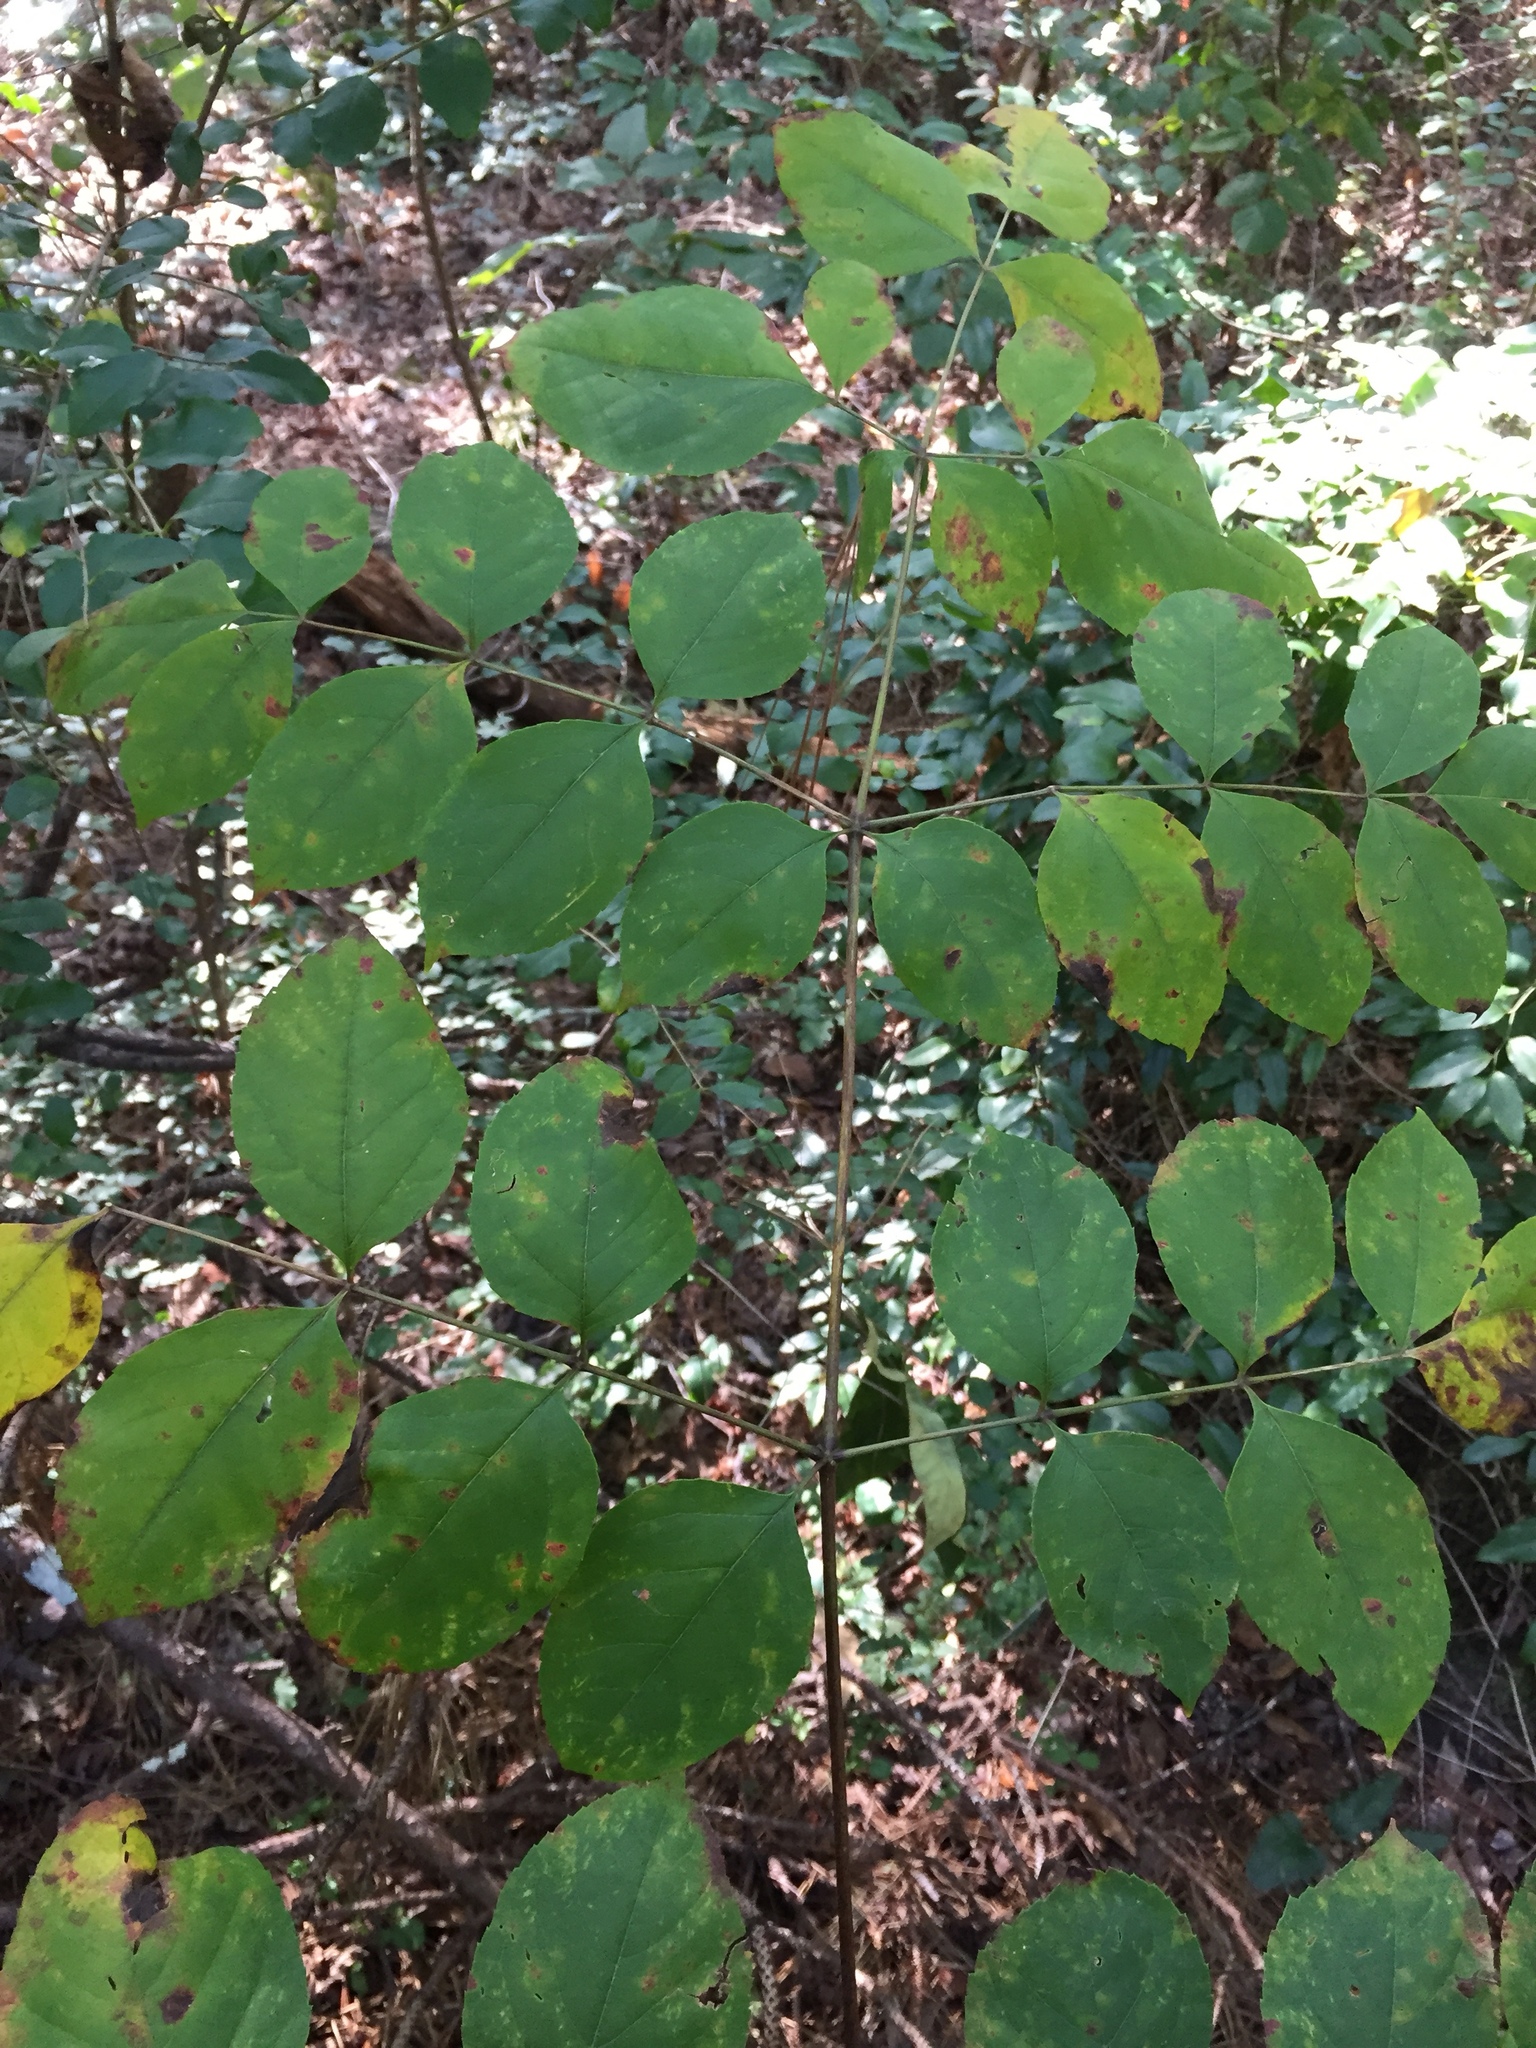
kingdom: Plantae
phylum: Tracheophyta
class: Magnoliopsida
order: Apiales
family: Araliaceae
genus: Aralia
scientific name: Aralia spinosa
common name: Hercules'-club
